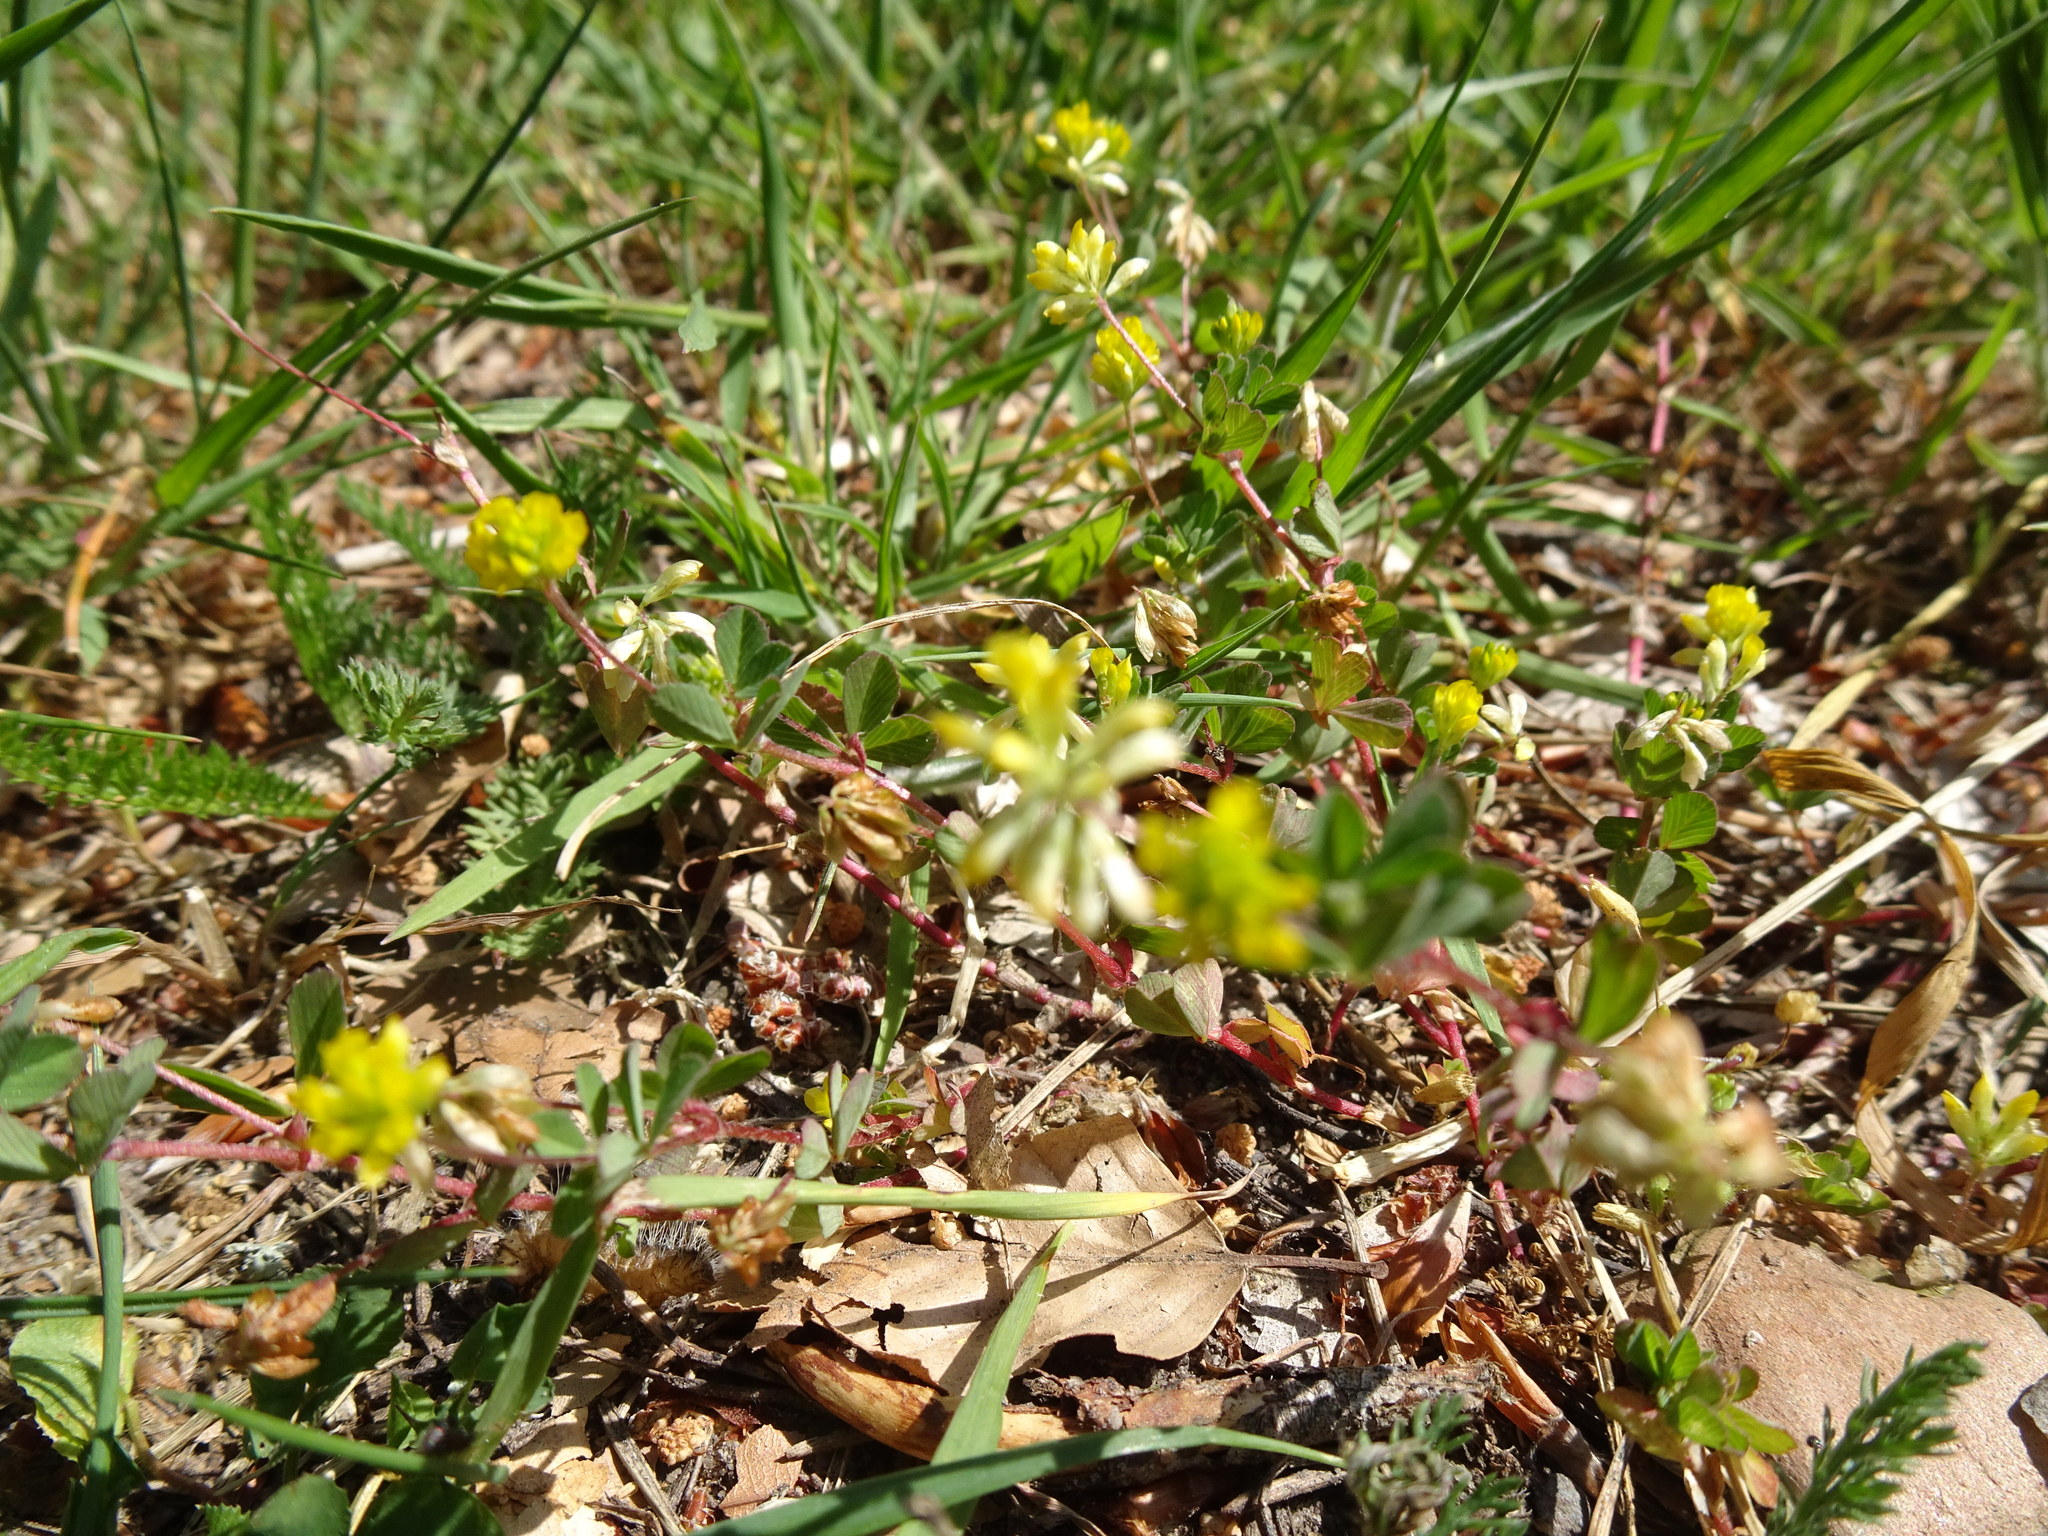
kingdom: Plantae
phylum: Tracheophyta
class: Magnoliopsida
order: Fabales
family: Fabaceae
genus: Trifolium
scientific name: Trifolium dubium
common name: Suckling clover
